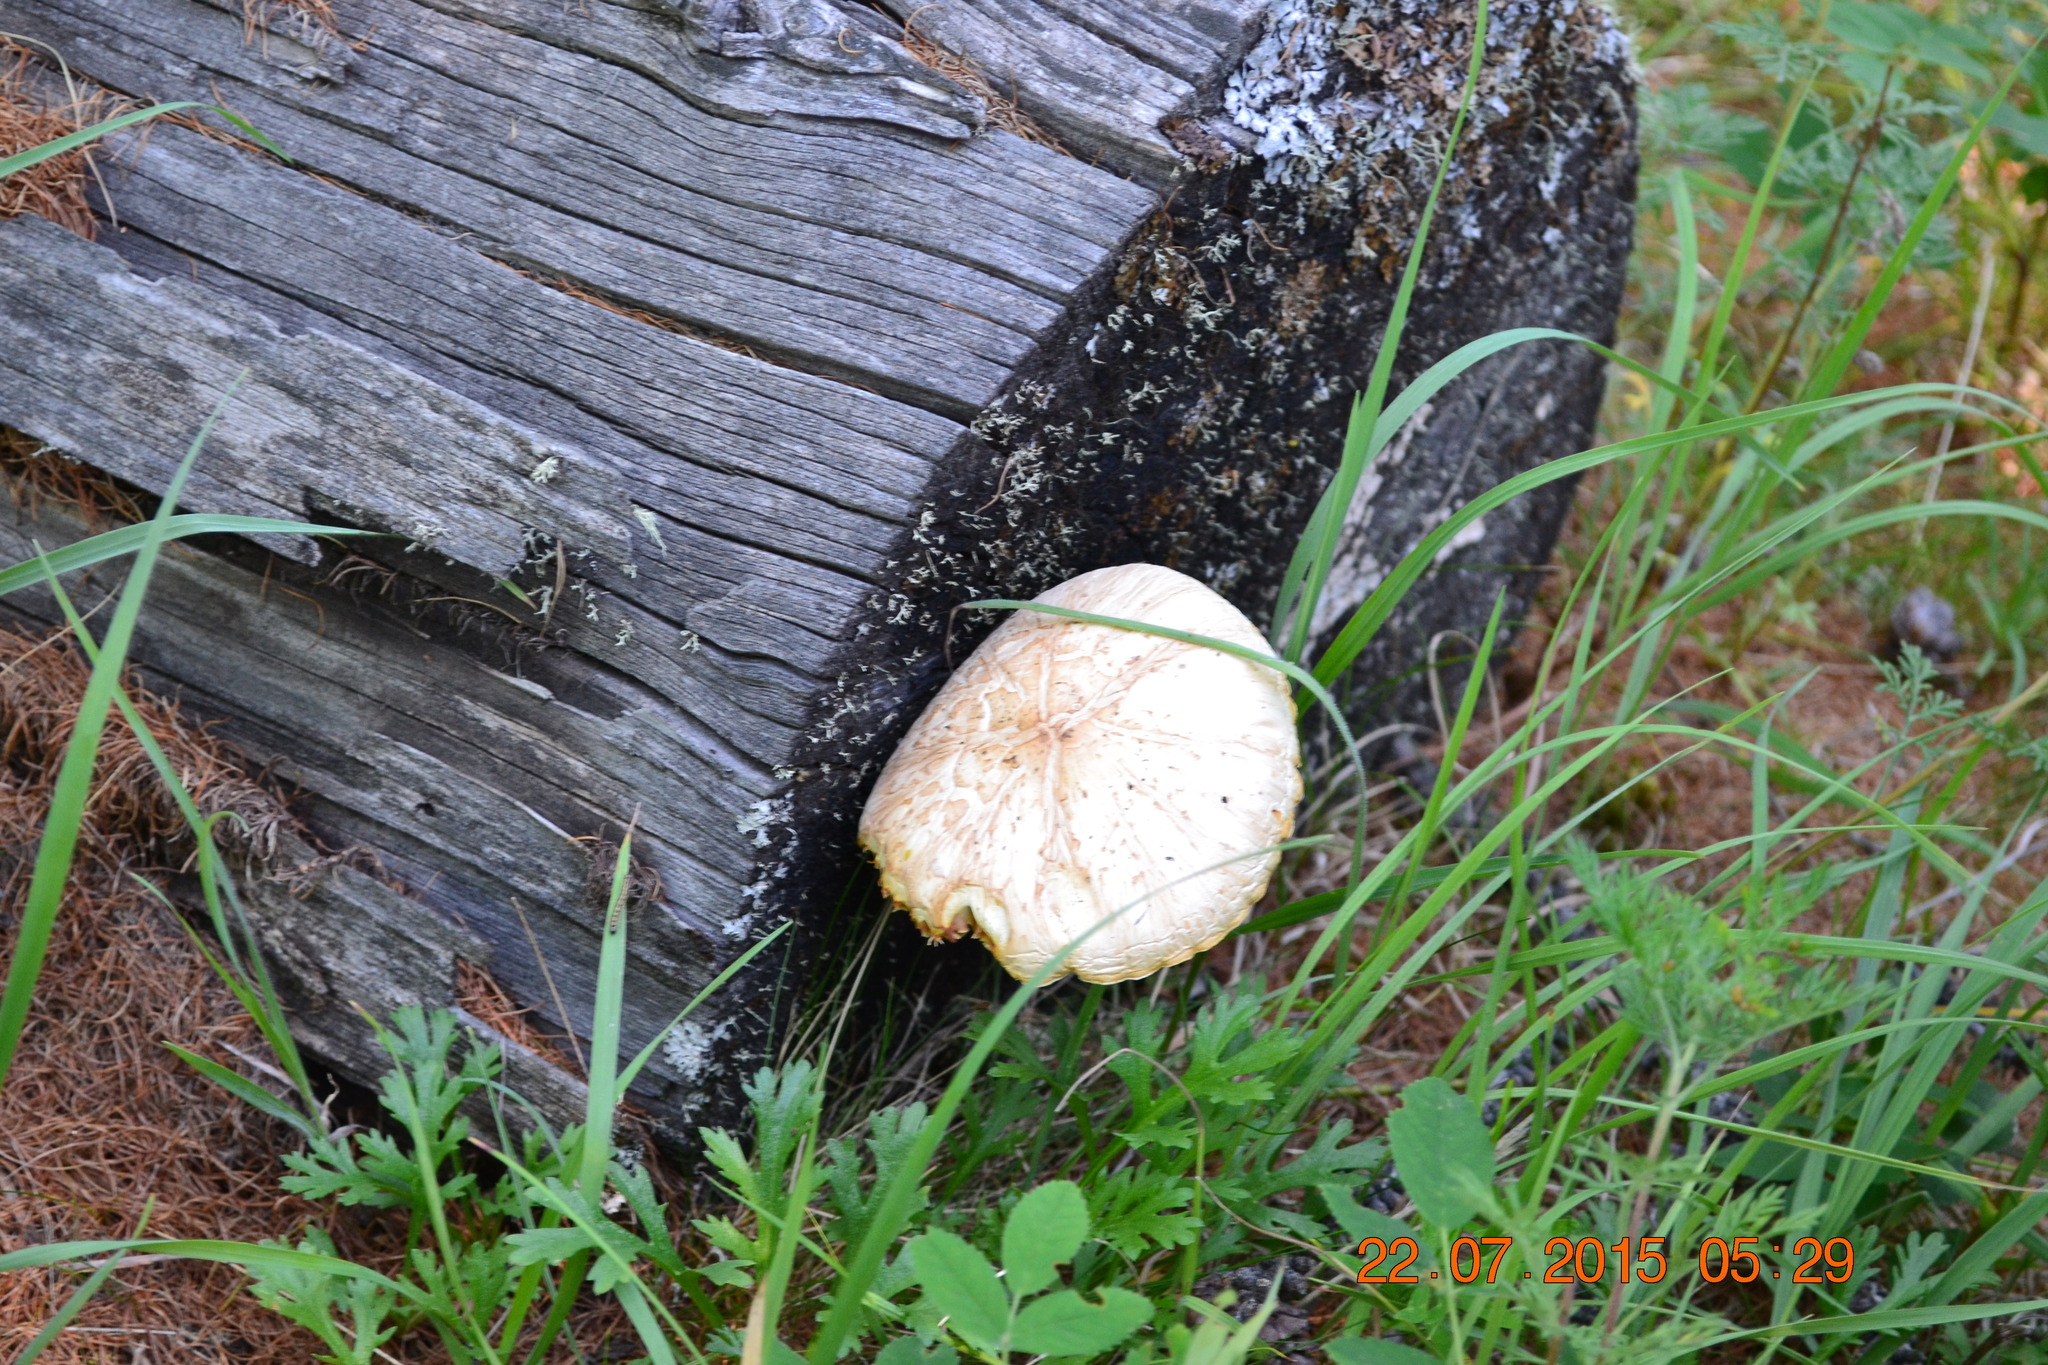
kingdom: Fungi
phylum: Basidiomycota
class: Agaricomycetes
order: Gloeophyllales
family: Gloeophyllaceae
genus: Neolentinus
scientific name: Neolentinus lepideus
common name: Scaly sawgill
